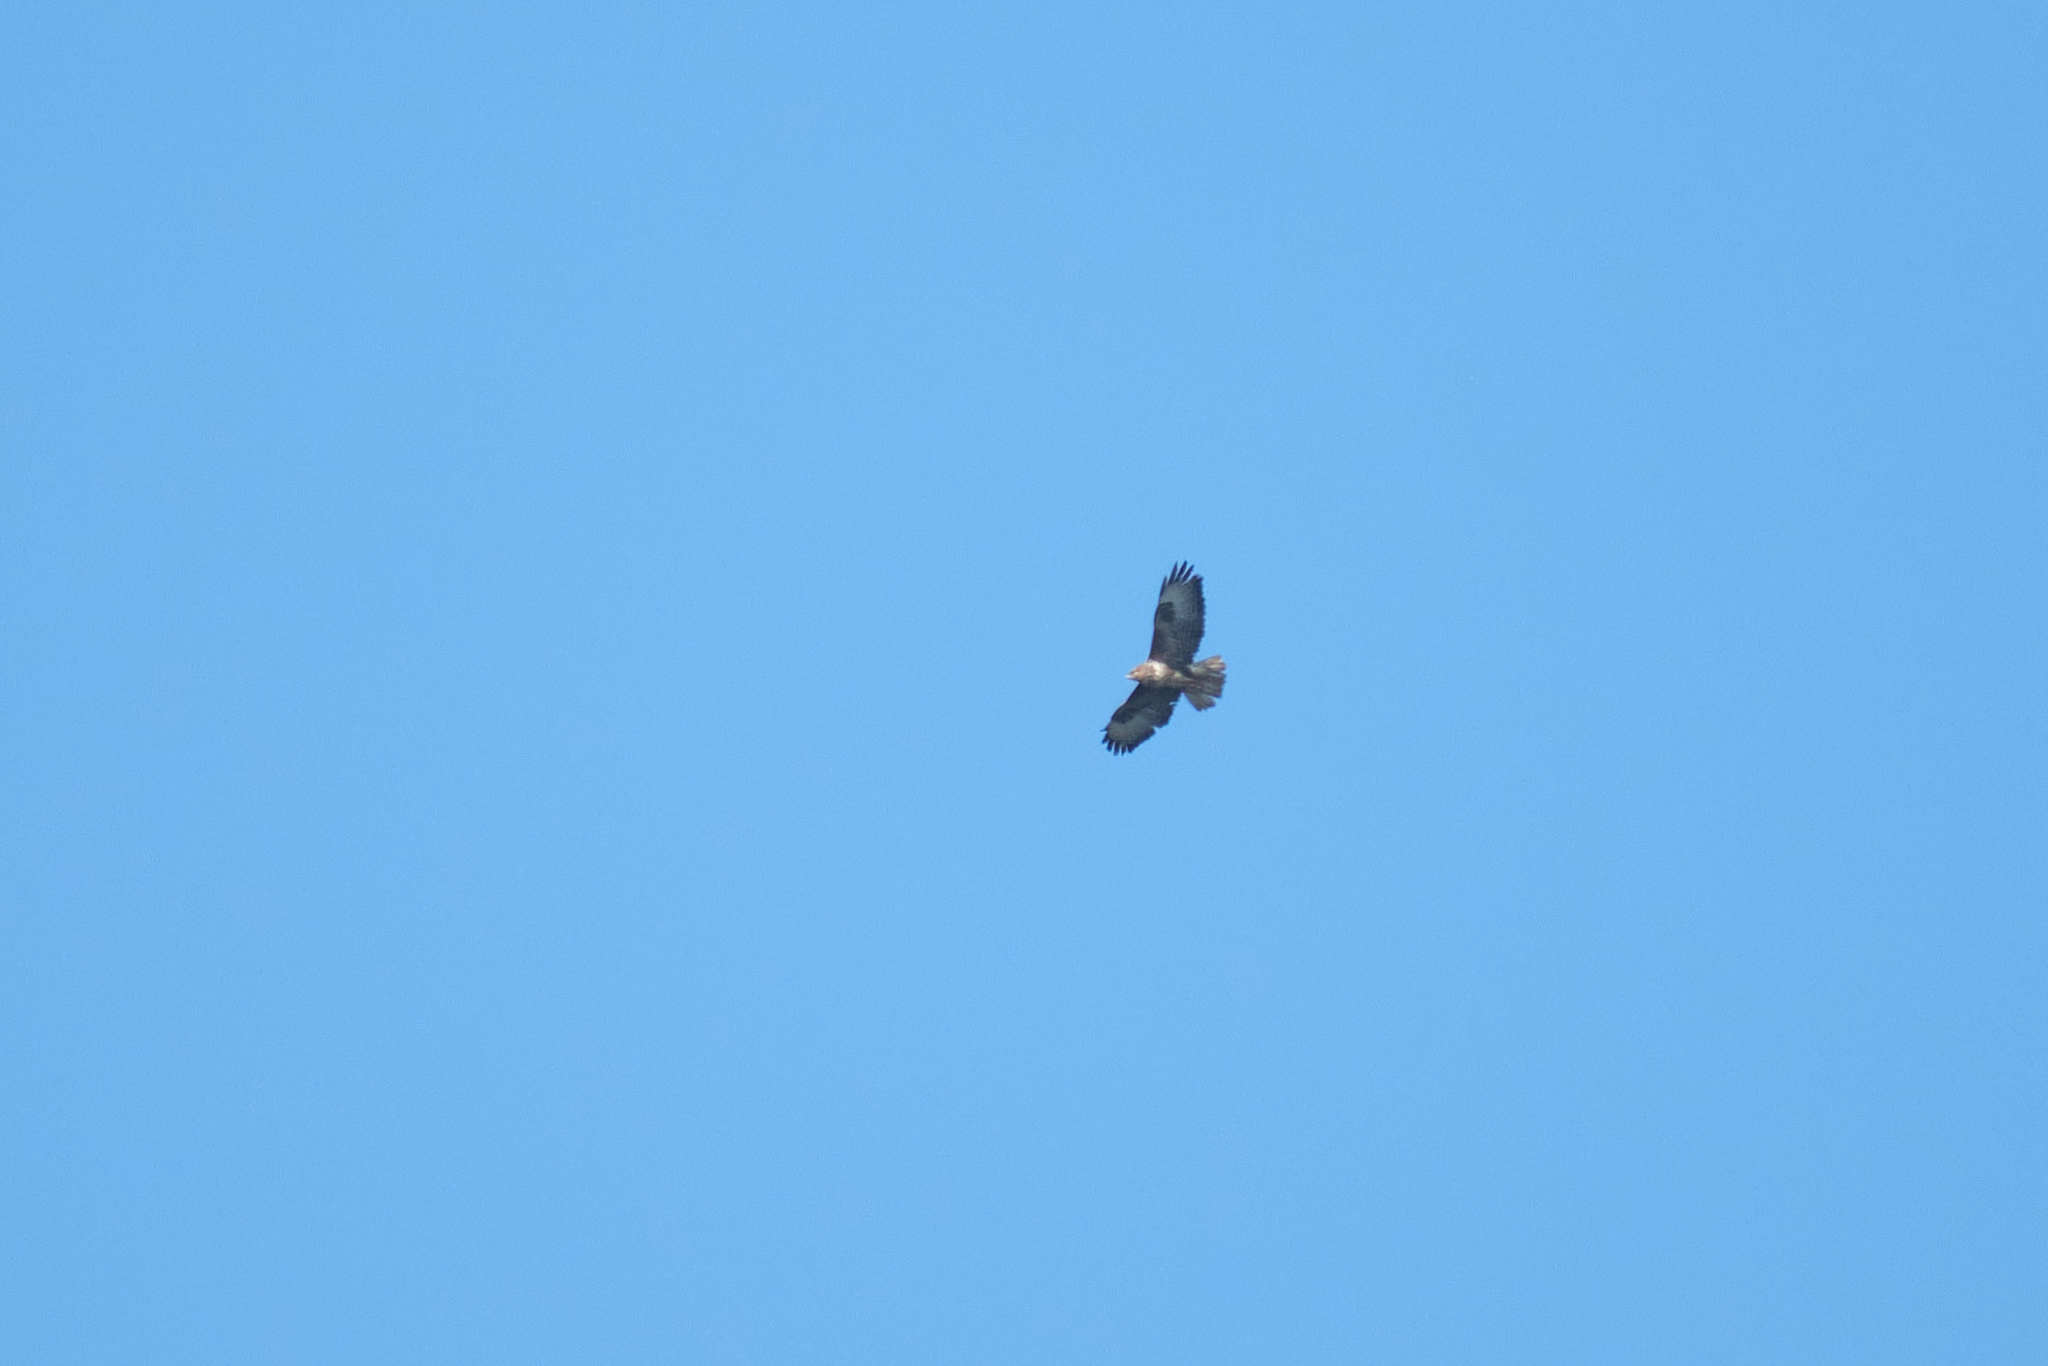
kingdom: Animalia
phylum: Chordata
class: Aves
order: Accipitriformes
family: Accipitridae
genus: Buteo
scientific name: Buteo buteo
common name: Common buzzard
